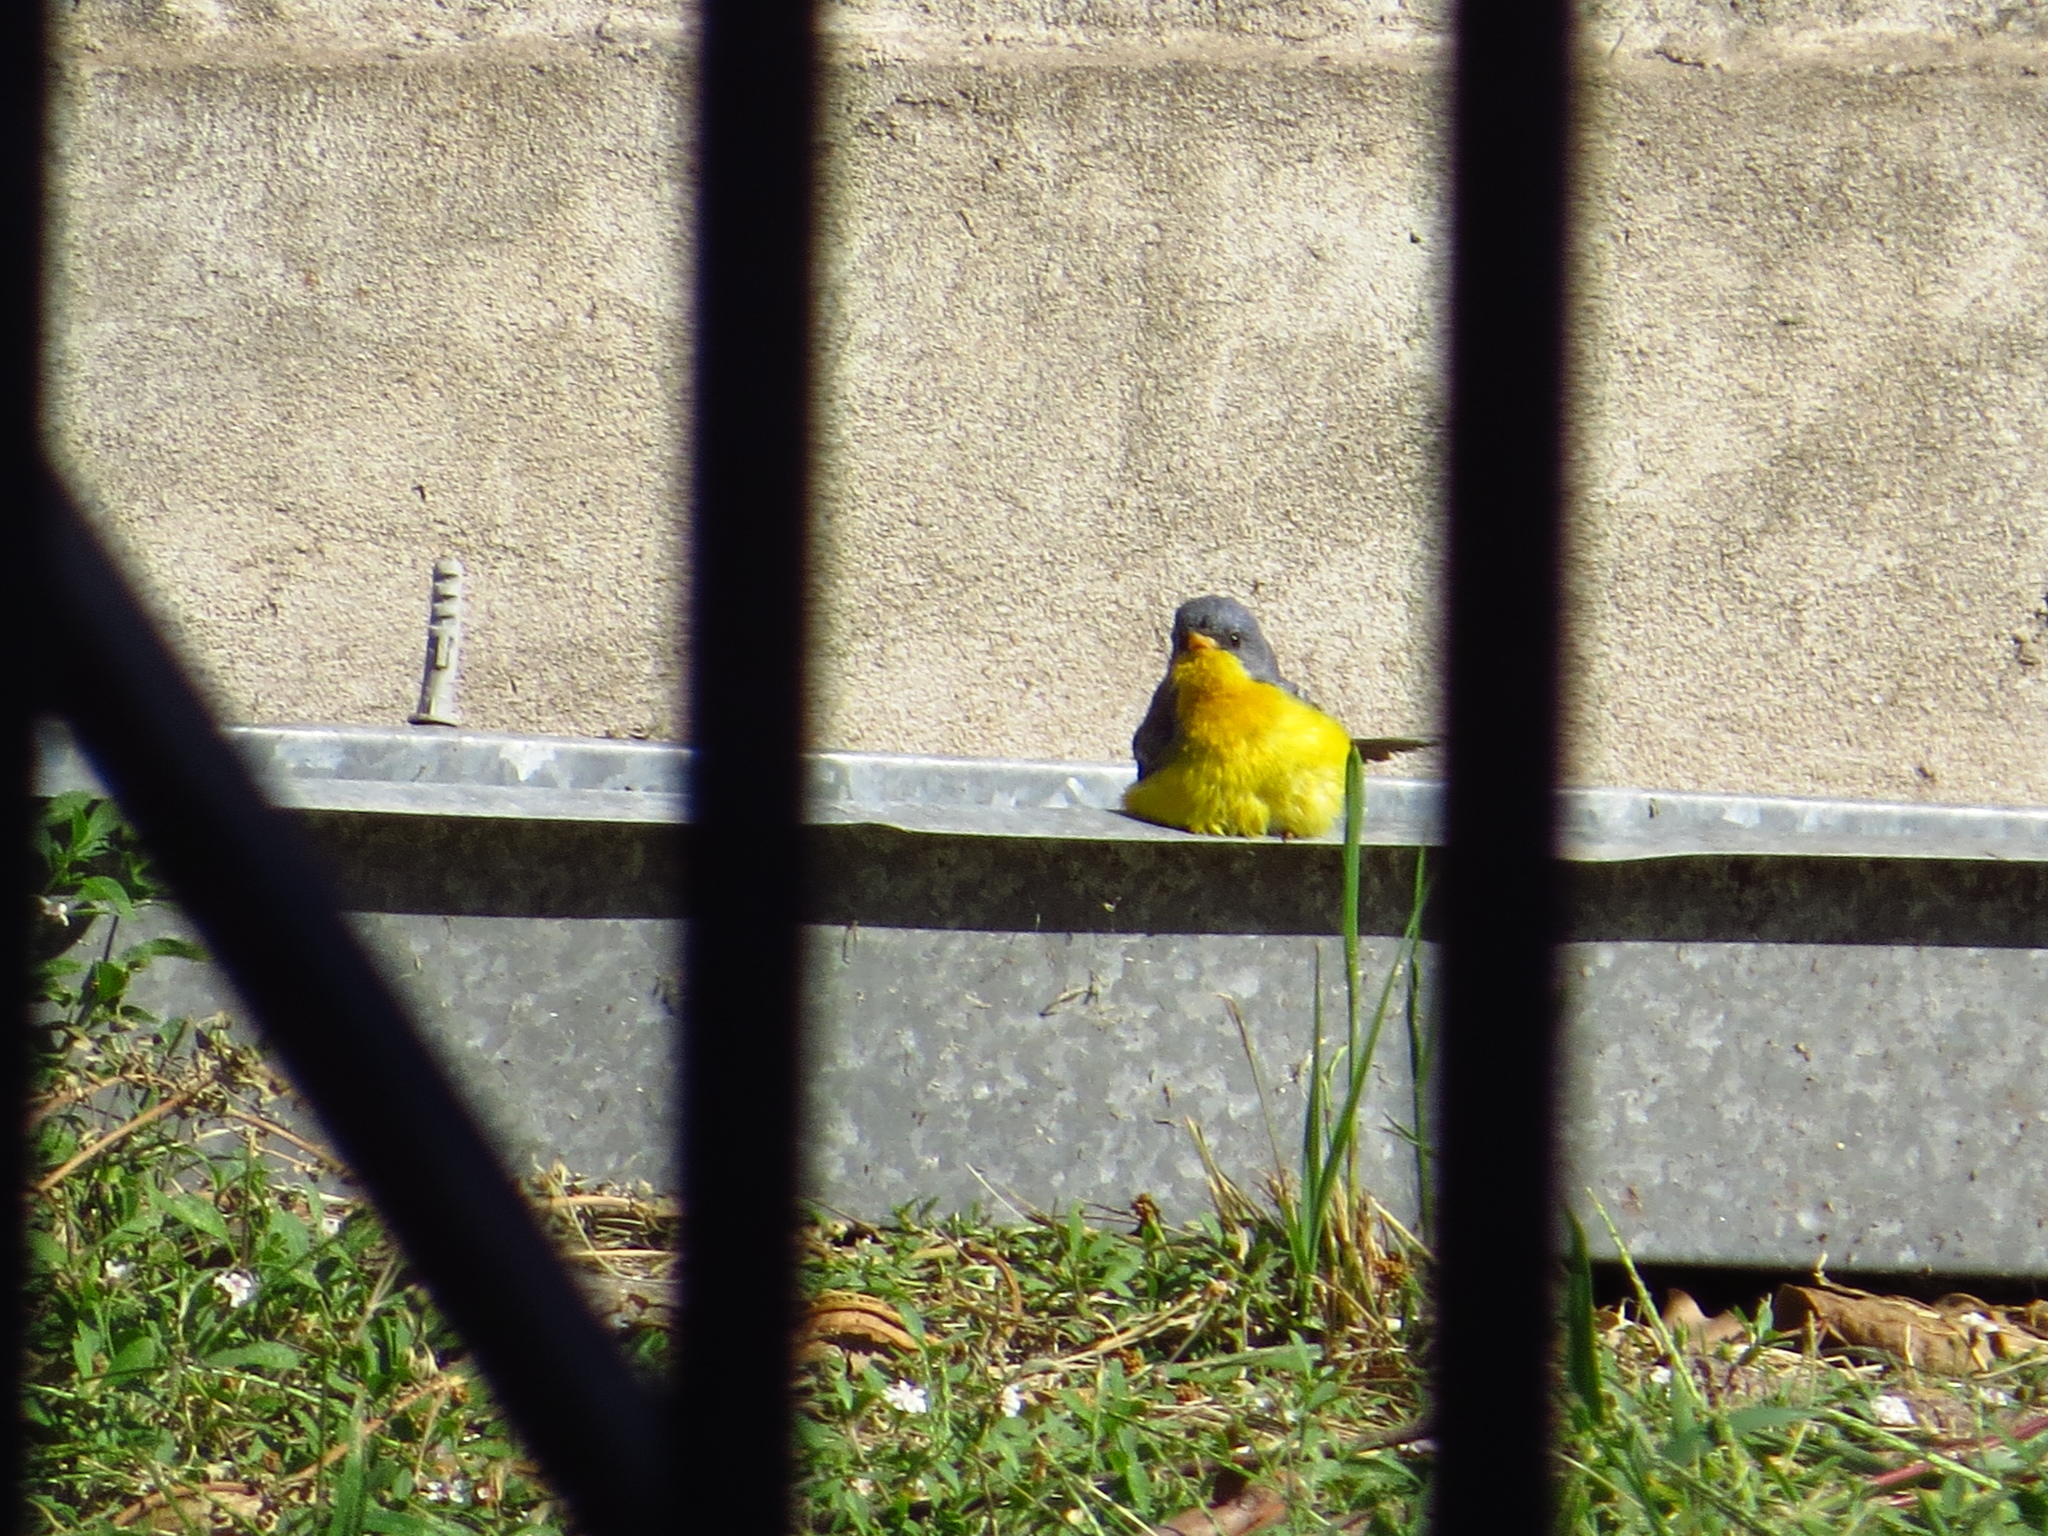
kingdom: Animalia
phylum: Chordata
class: Aves
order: Passeriformes
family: Parulidae
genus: Setophaga
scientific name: Setophaga pitiayumi
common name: Tropical parula
